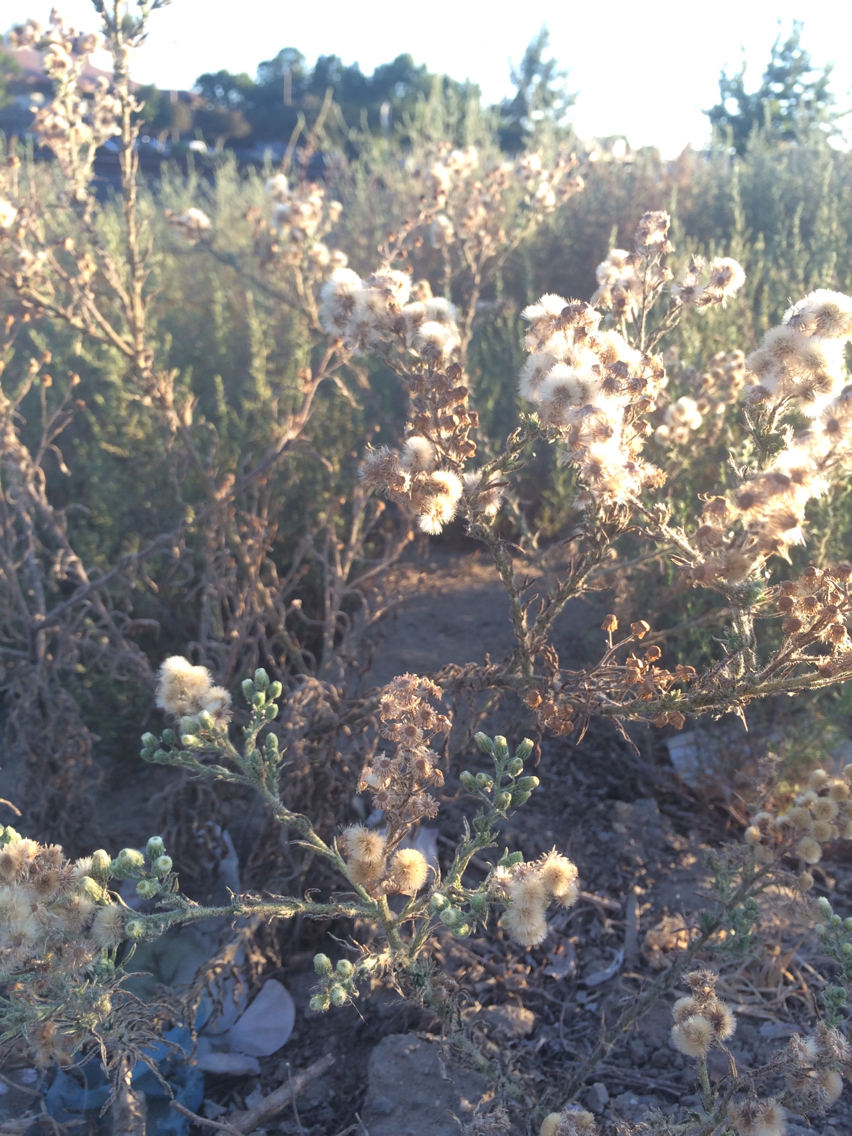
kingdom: Plantae
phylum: Tracheophyta
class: Magnoliopsida
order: Asterales
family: Asteraceae
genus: Erigeron
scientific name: Erigeron bonariensis
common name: Argentine fleabane
